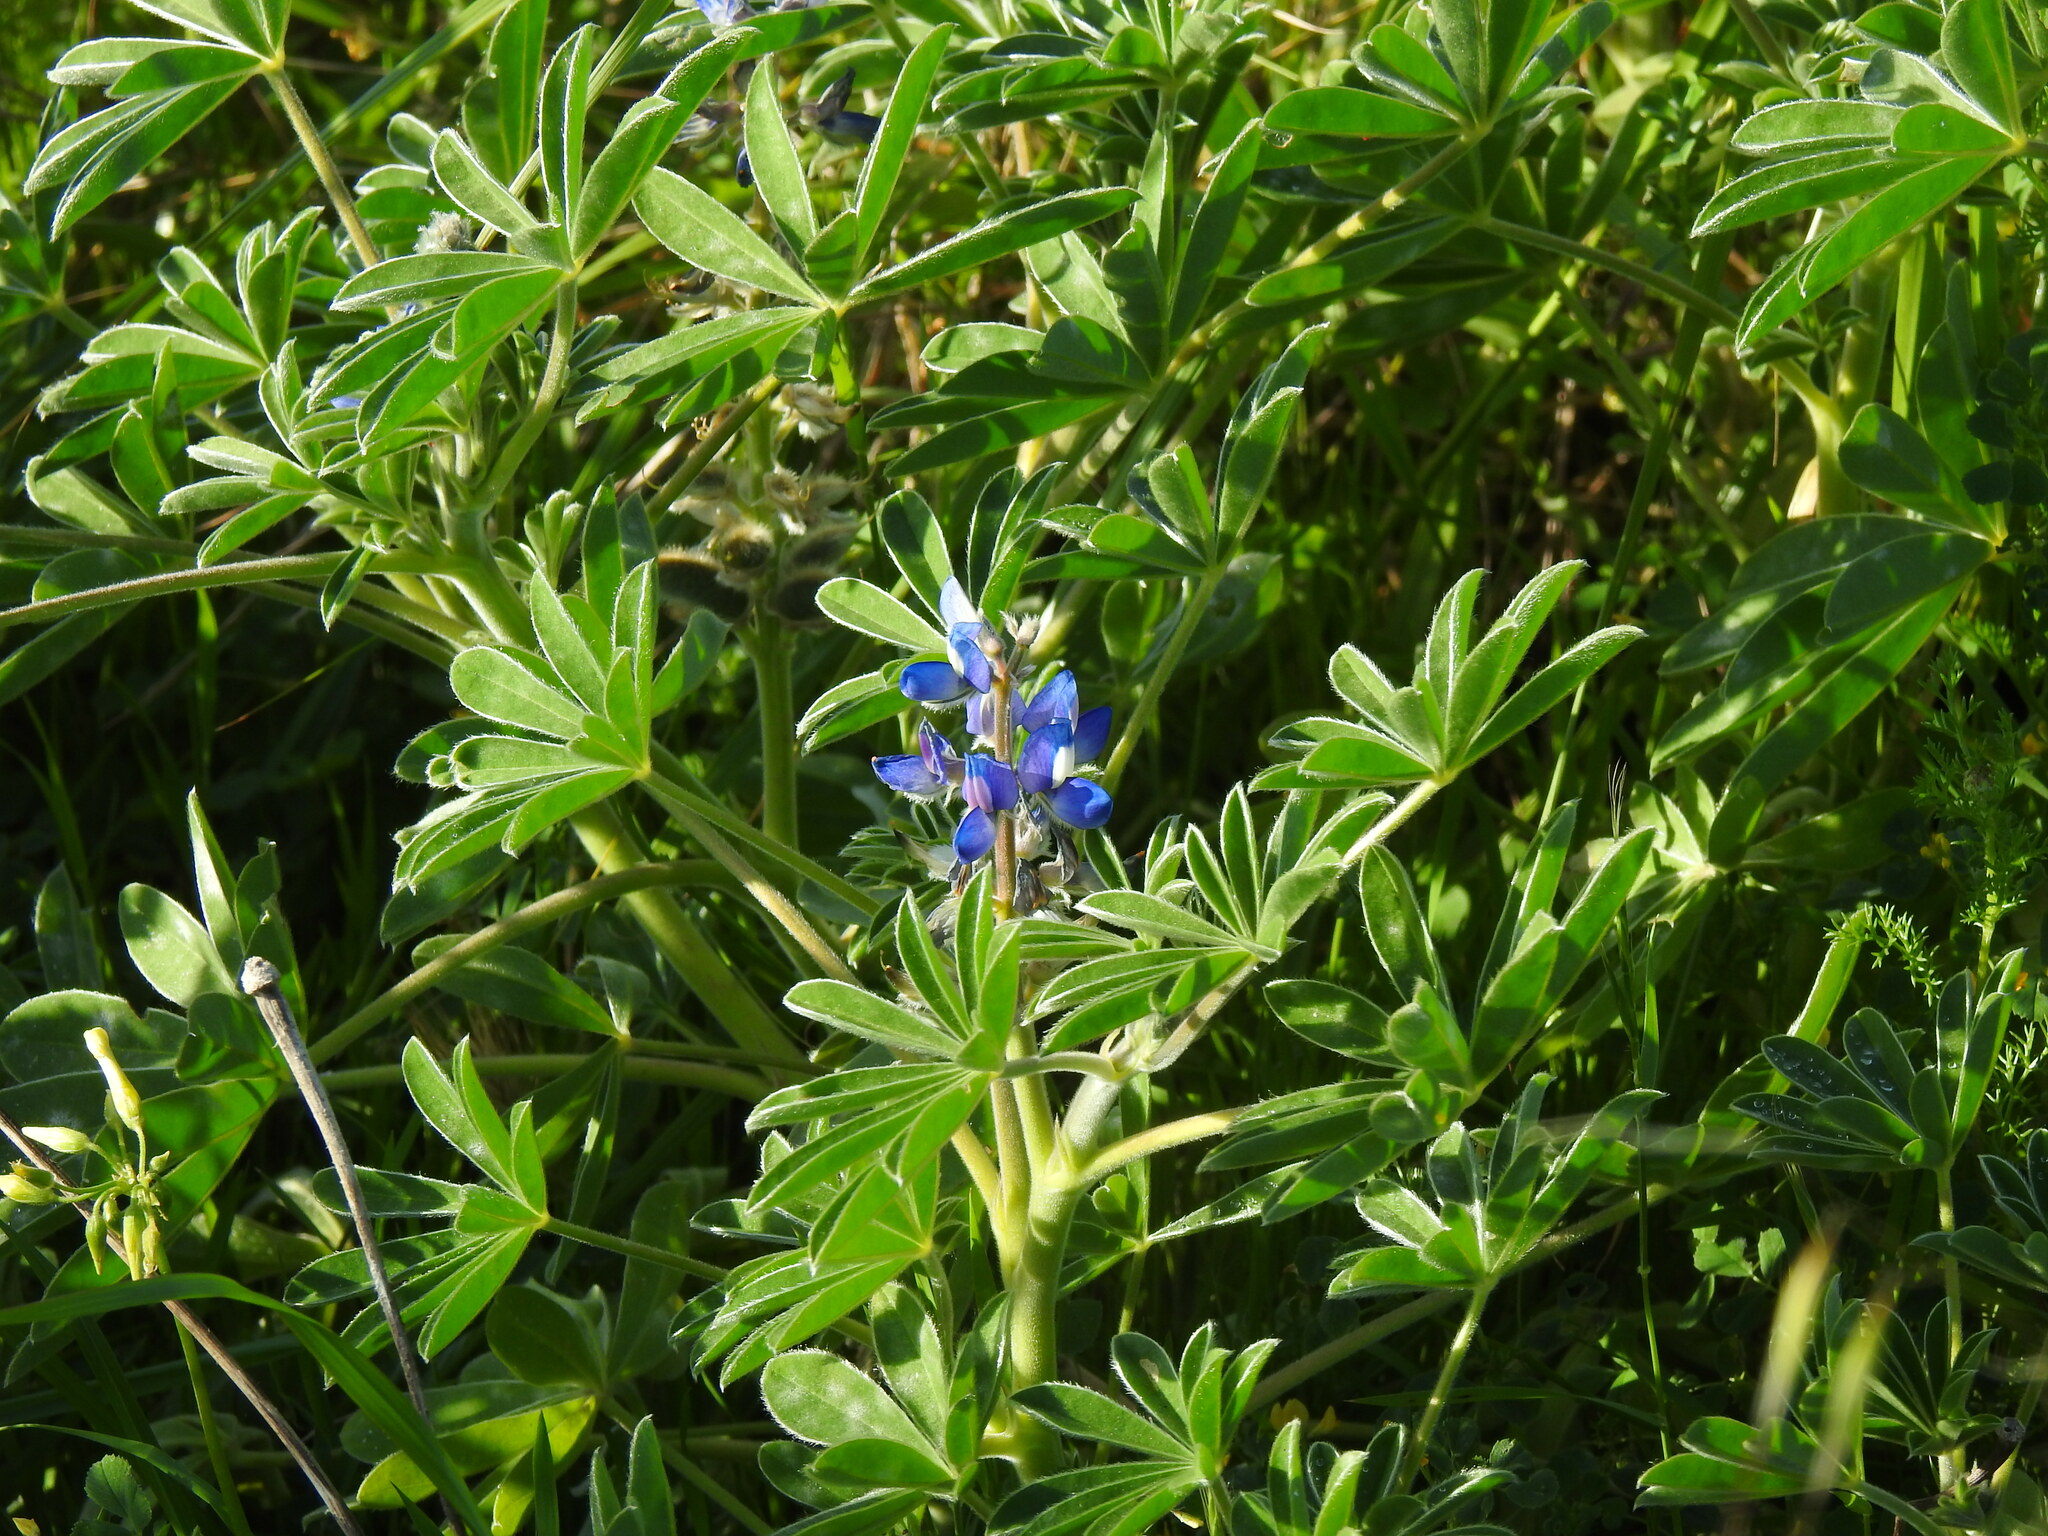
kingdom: Plantae
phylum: Tracheophyta
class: Magnoliopsida
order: Fabales
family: Fabaceae
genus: Lupinus
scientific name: Lupinus cosentinii
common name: Hairy blue lupin
